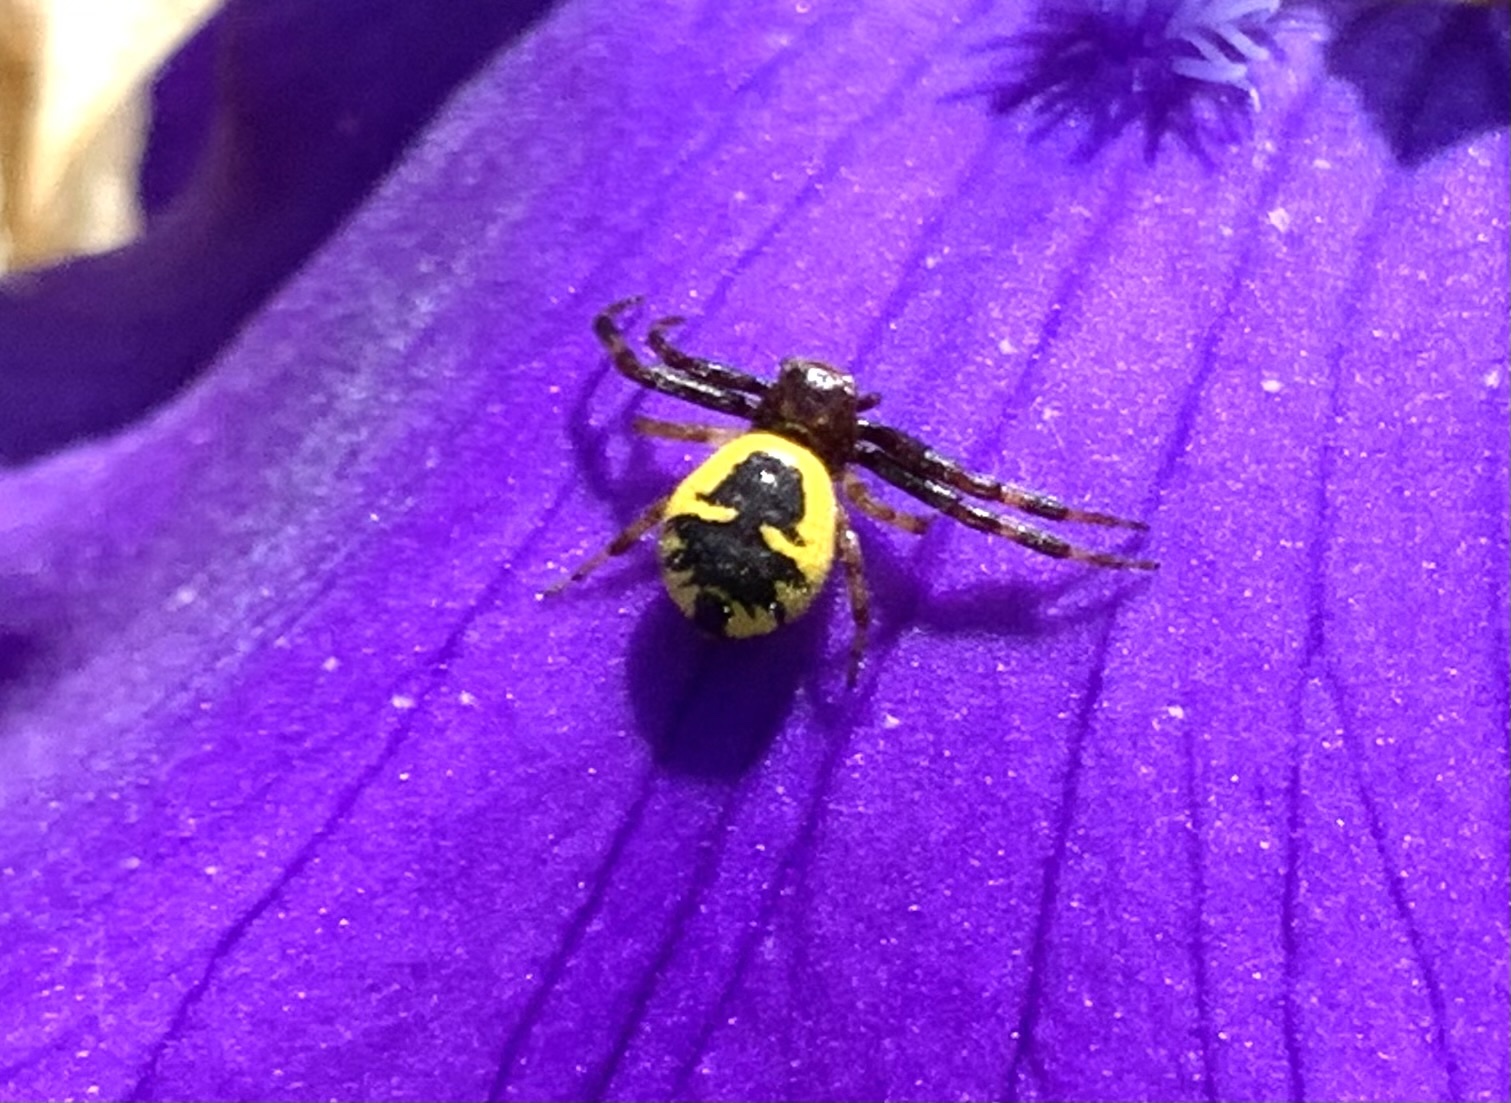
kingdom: Animalia
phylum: Arthropoda
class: Arachnida
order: Araneae
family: Thomisidae
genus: Synema
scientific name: Synema globosum
